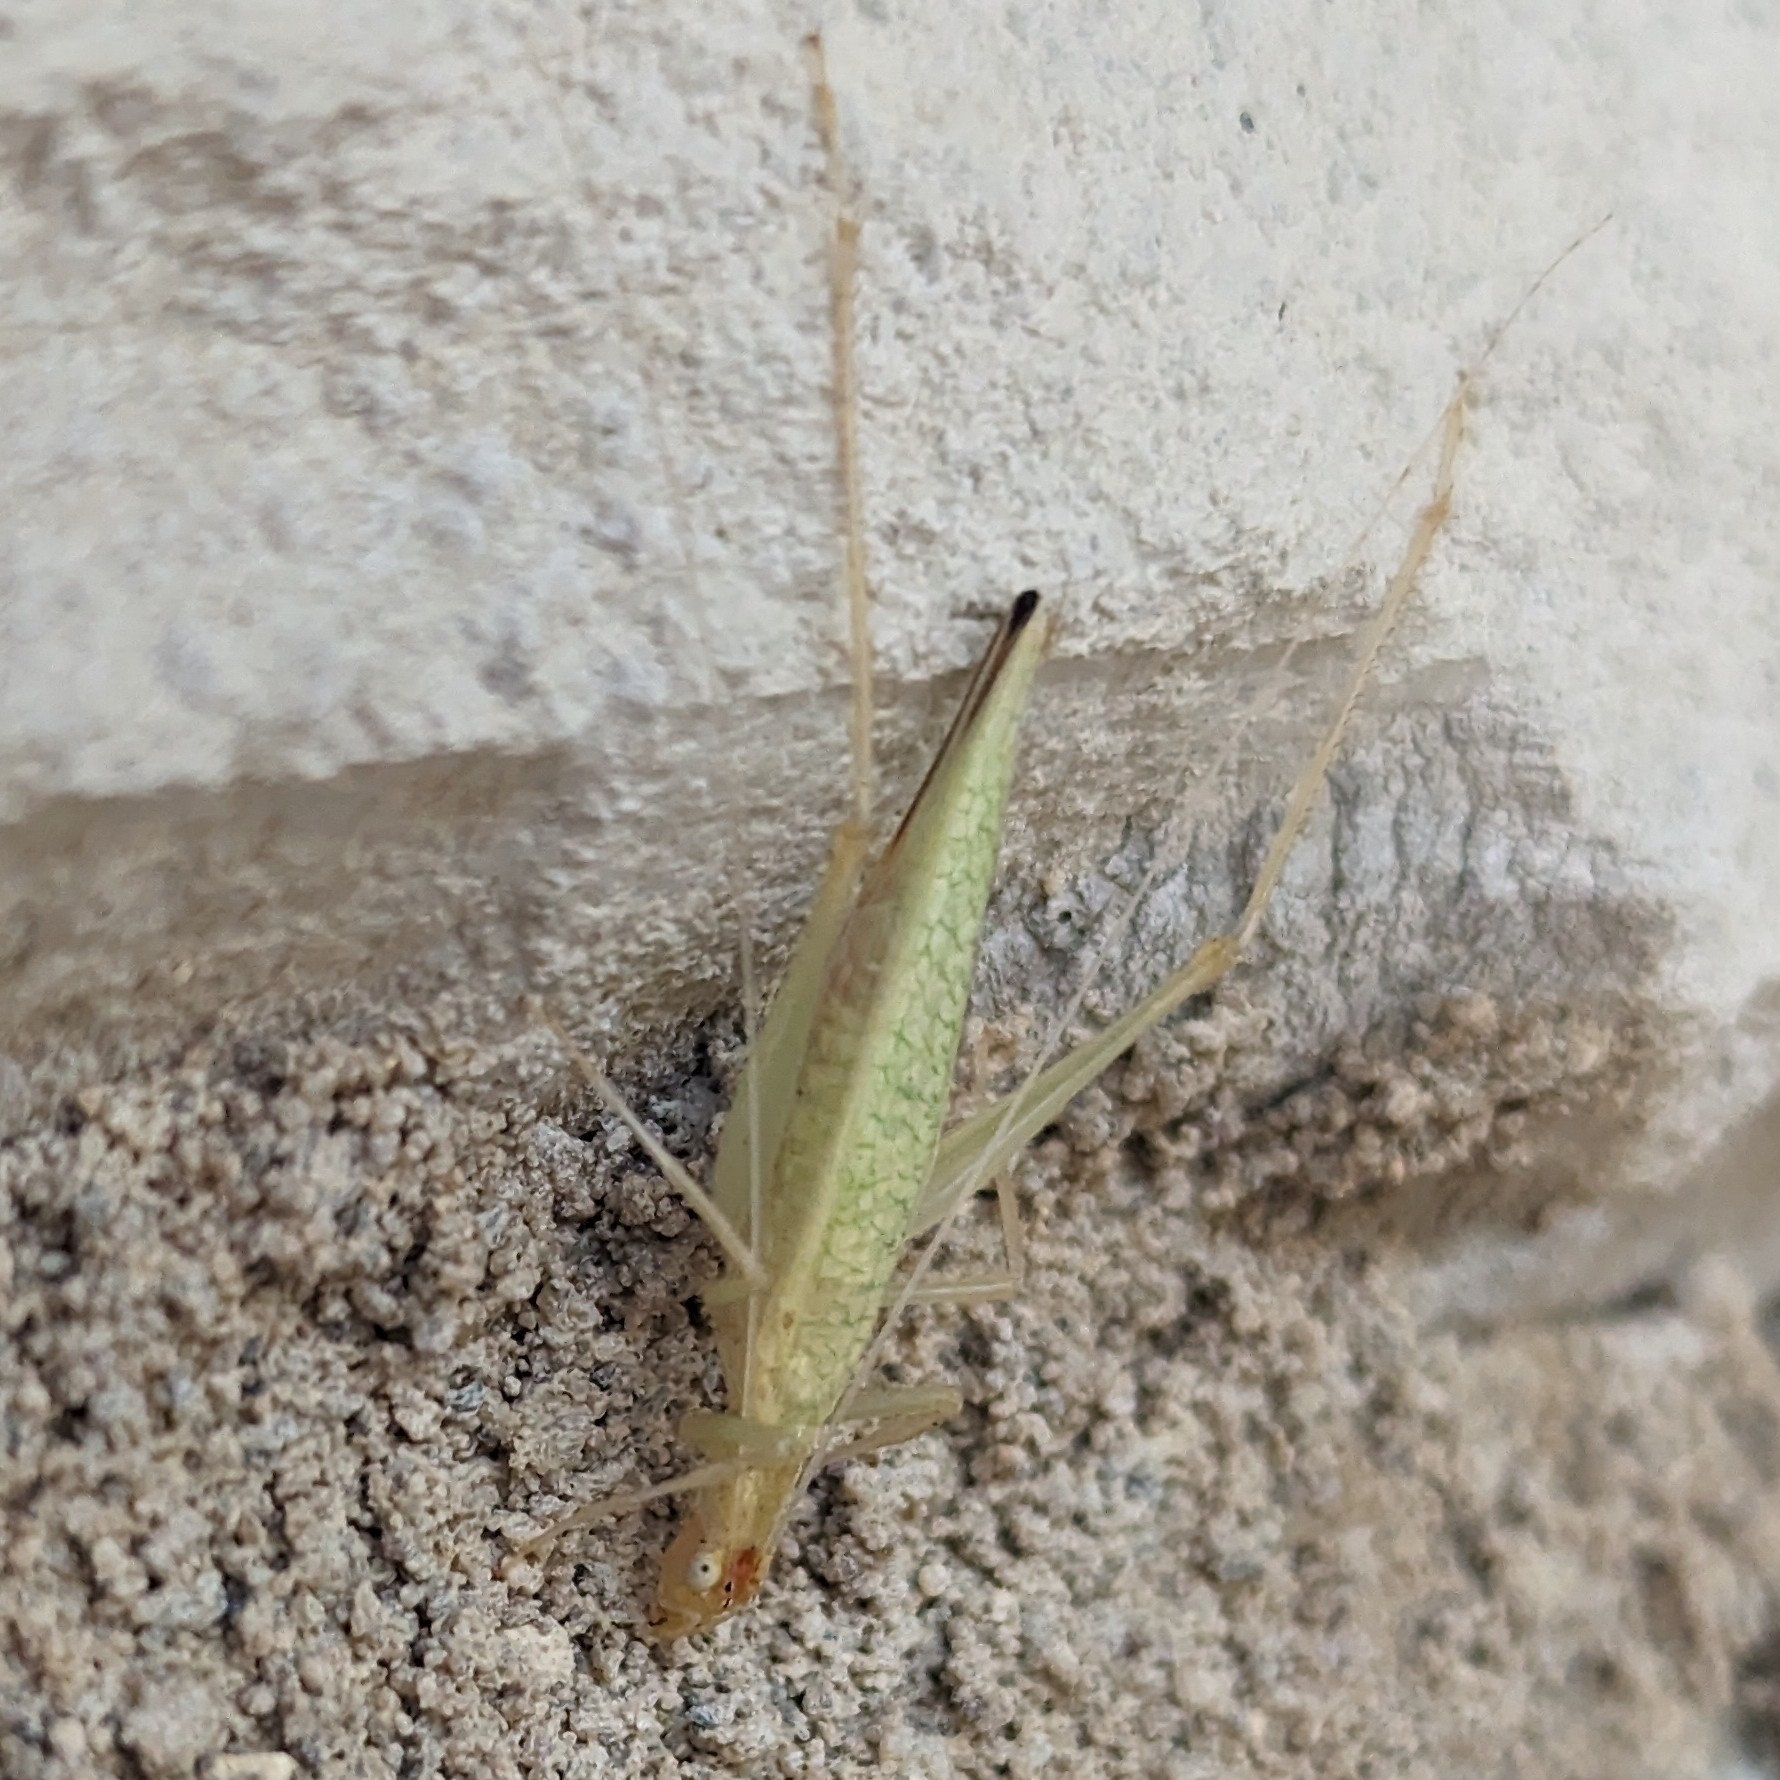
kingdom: Animalia
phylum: Arthropoda
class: Insecta
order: Orthoptera
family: Gryllidae
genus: Oecanthus
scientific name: Oecanthus niveus
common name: Narrow-winged tree cricket
